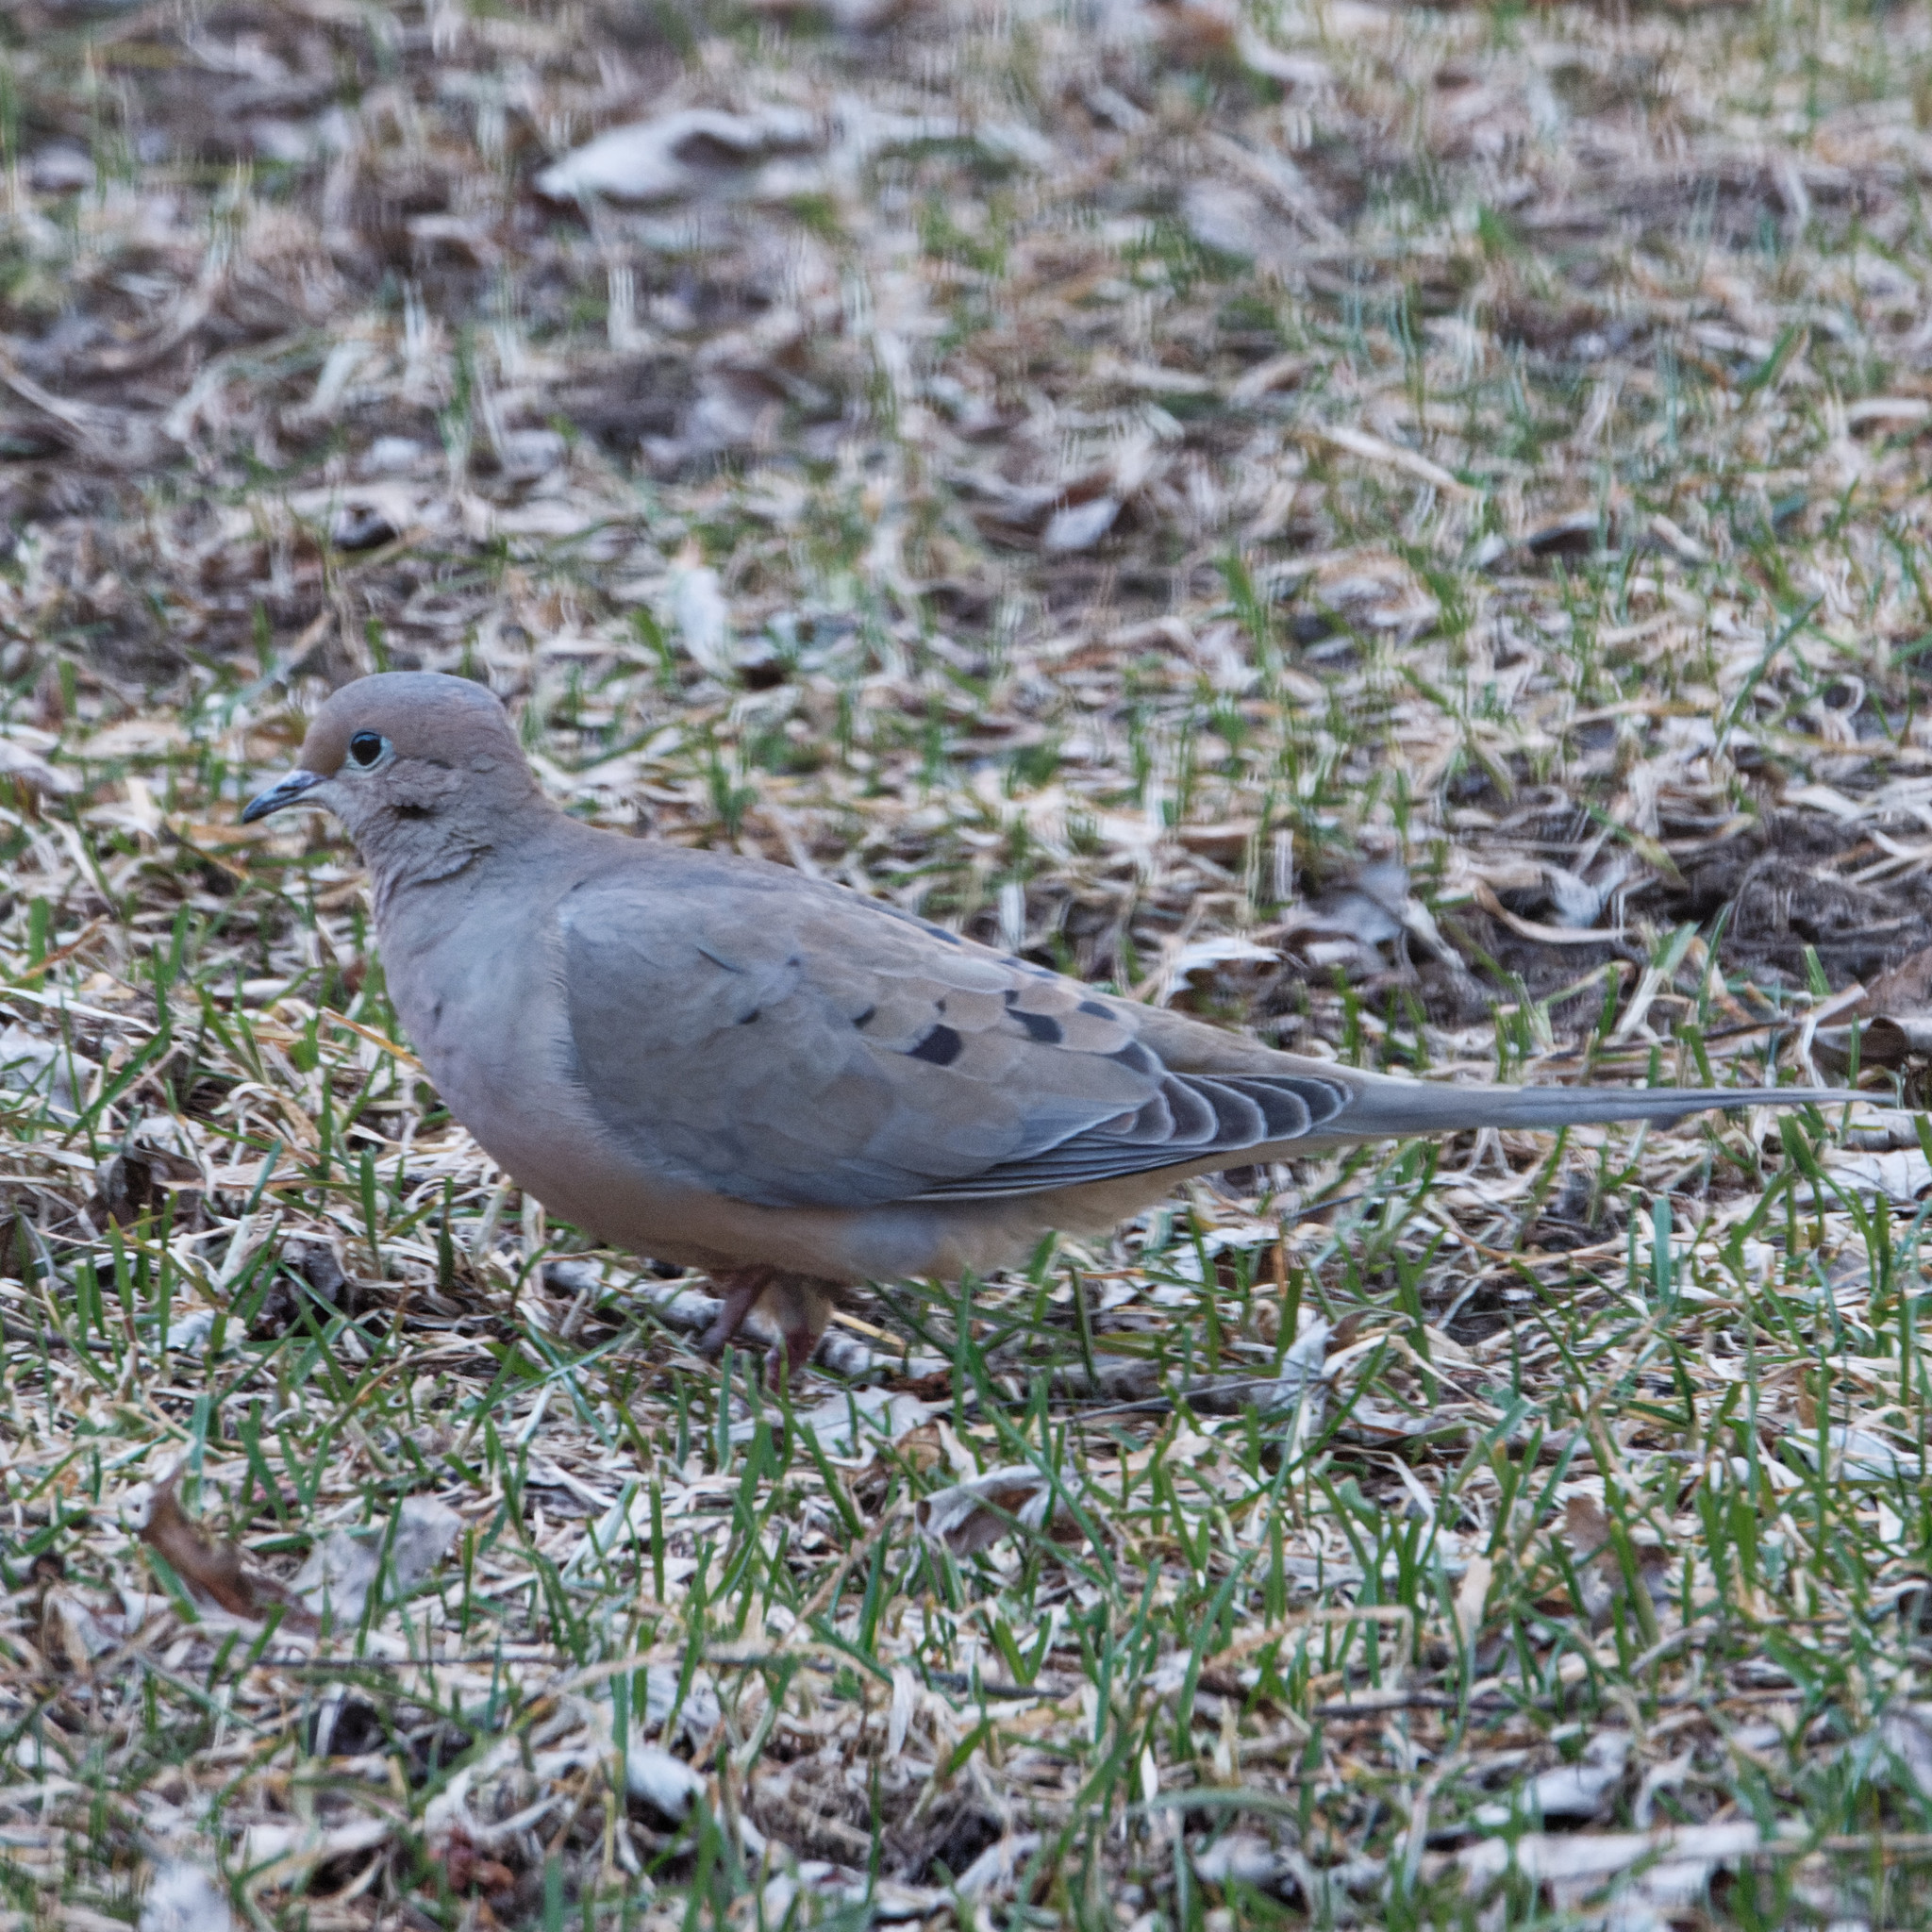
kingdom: Animalia
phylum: Chordata
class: Aves
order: Columbiformes
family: Columbidae
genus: Zenaida
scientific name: Zenaida macroura
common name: Mourning dove
